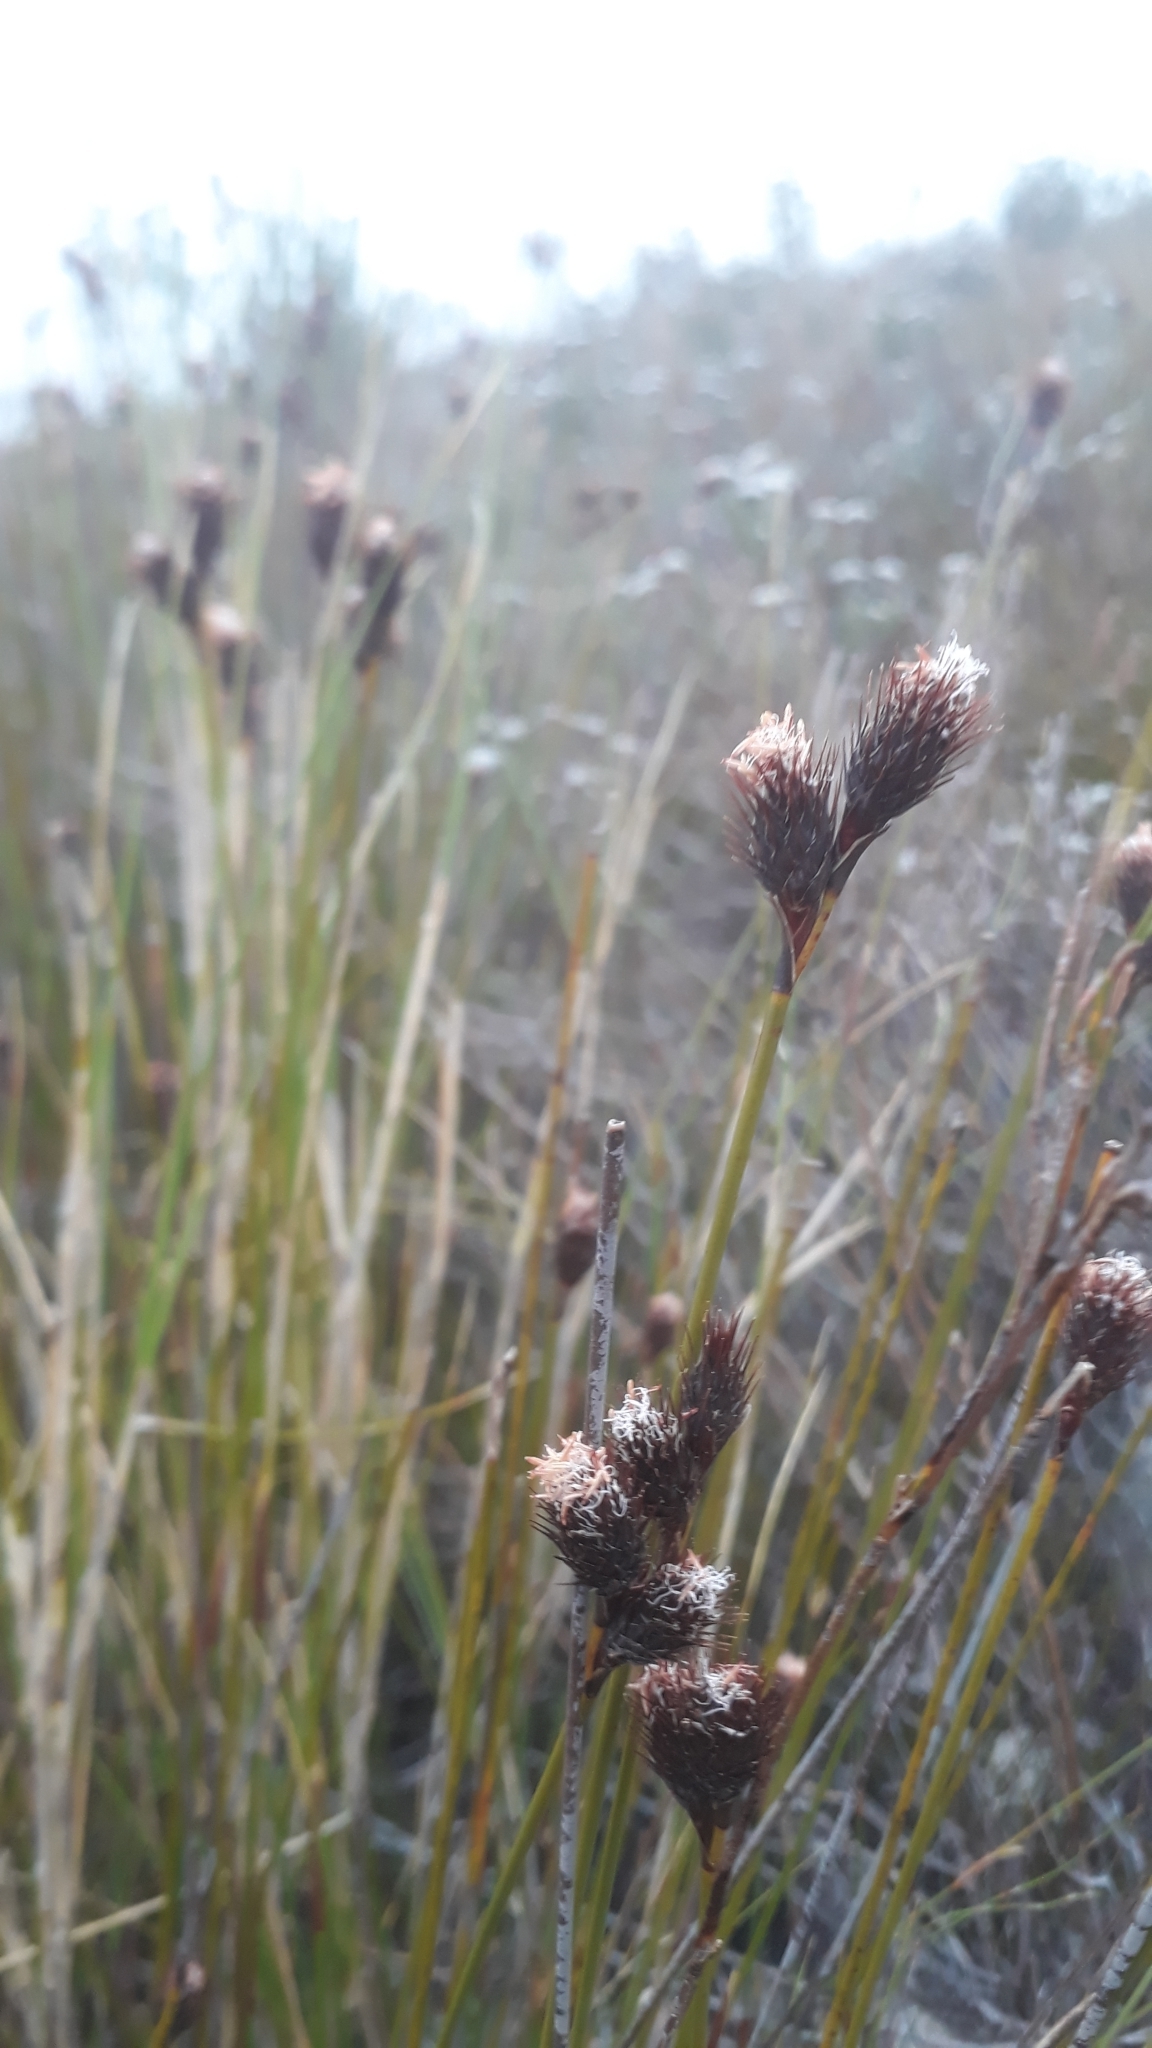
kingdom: Plantae
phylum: Tracheophyta
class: Liliopsida
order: Poales
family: Restionaceae
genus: Hypodiscus
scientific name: Hypodiscus aristatus
